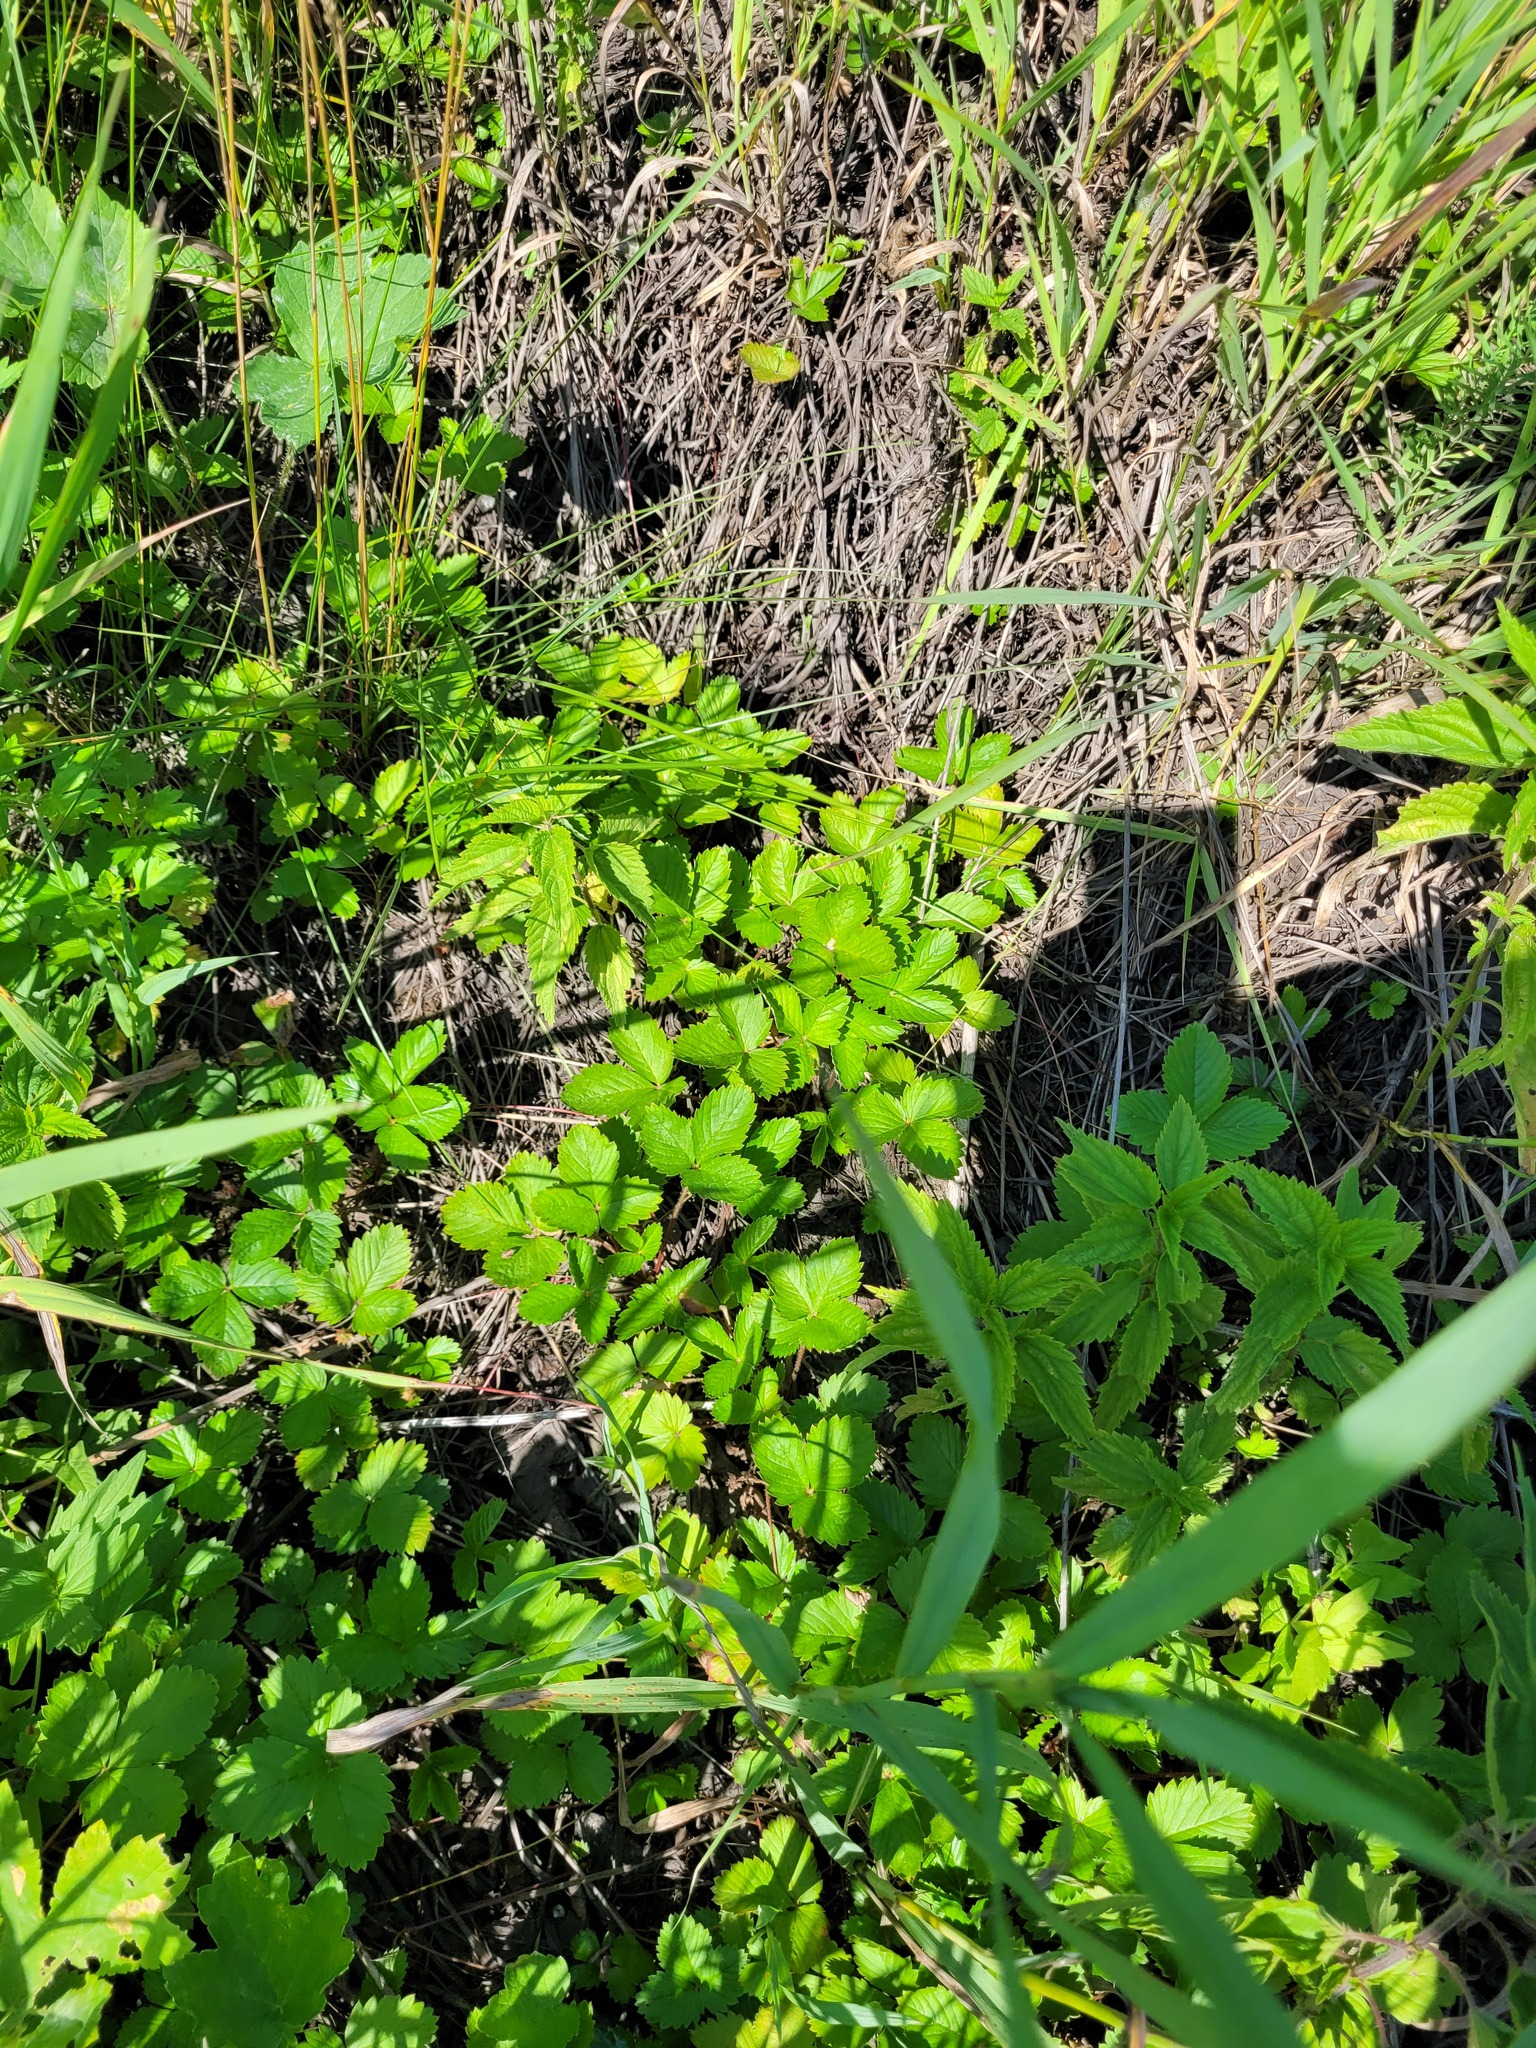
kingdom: Plantae
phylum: Tracheophyta
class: Magnoliopsida
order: Rosales
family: Rosaceae
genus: Fragaria
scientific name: Fragaria vesca
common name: Wild strawberry
